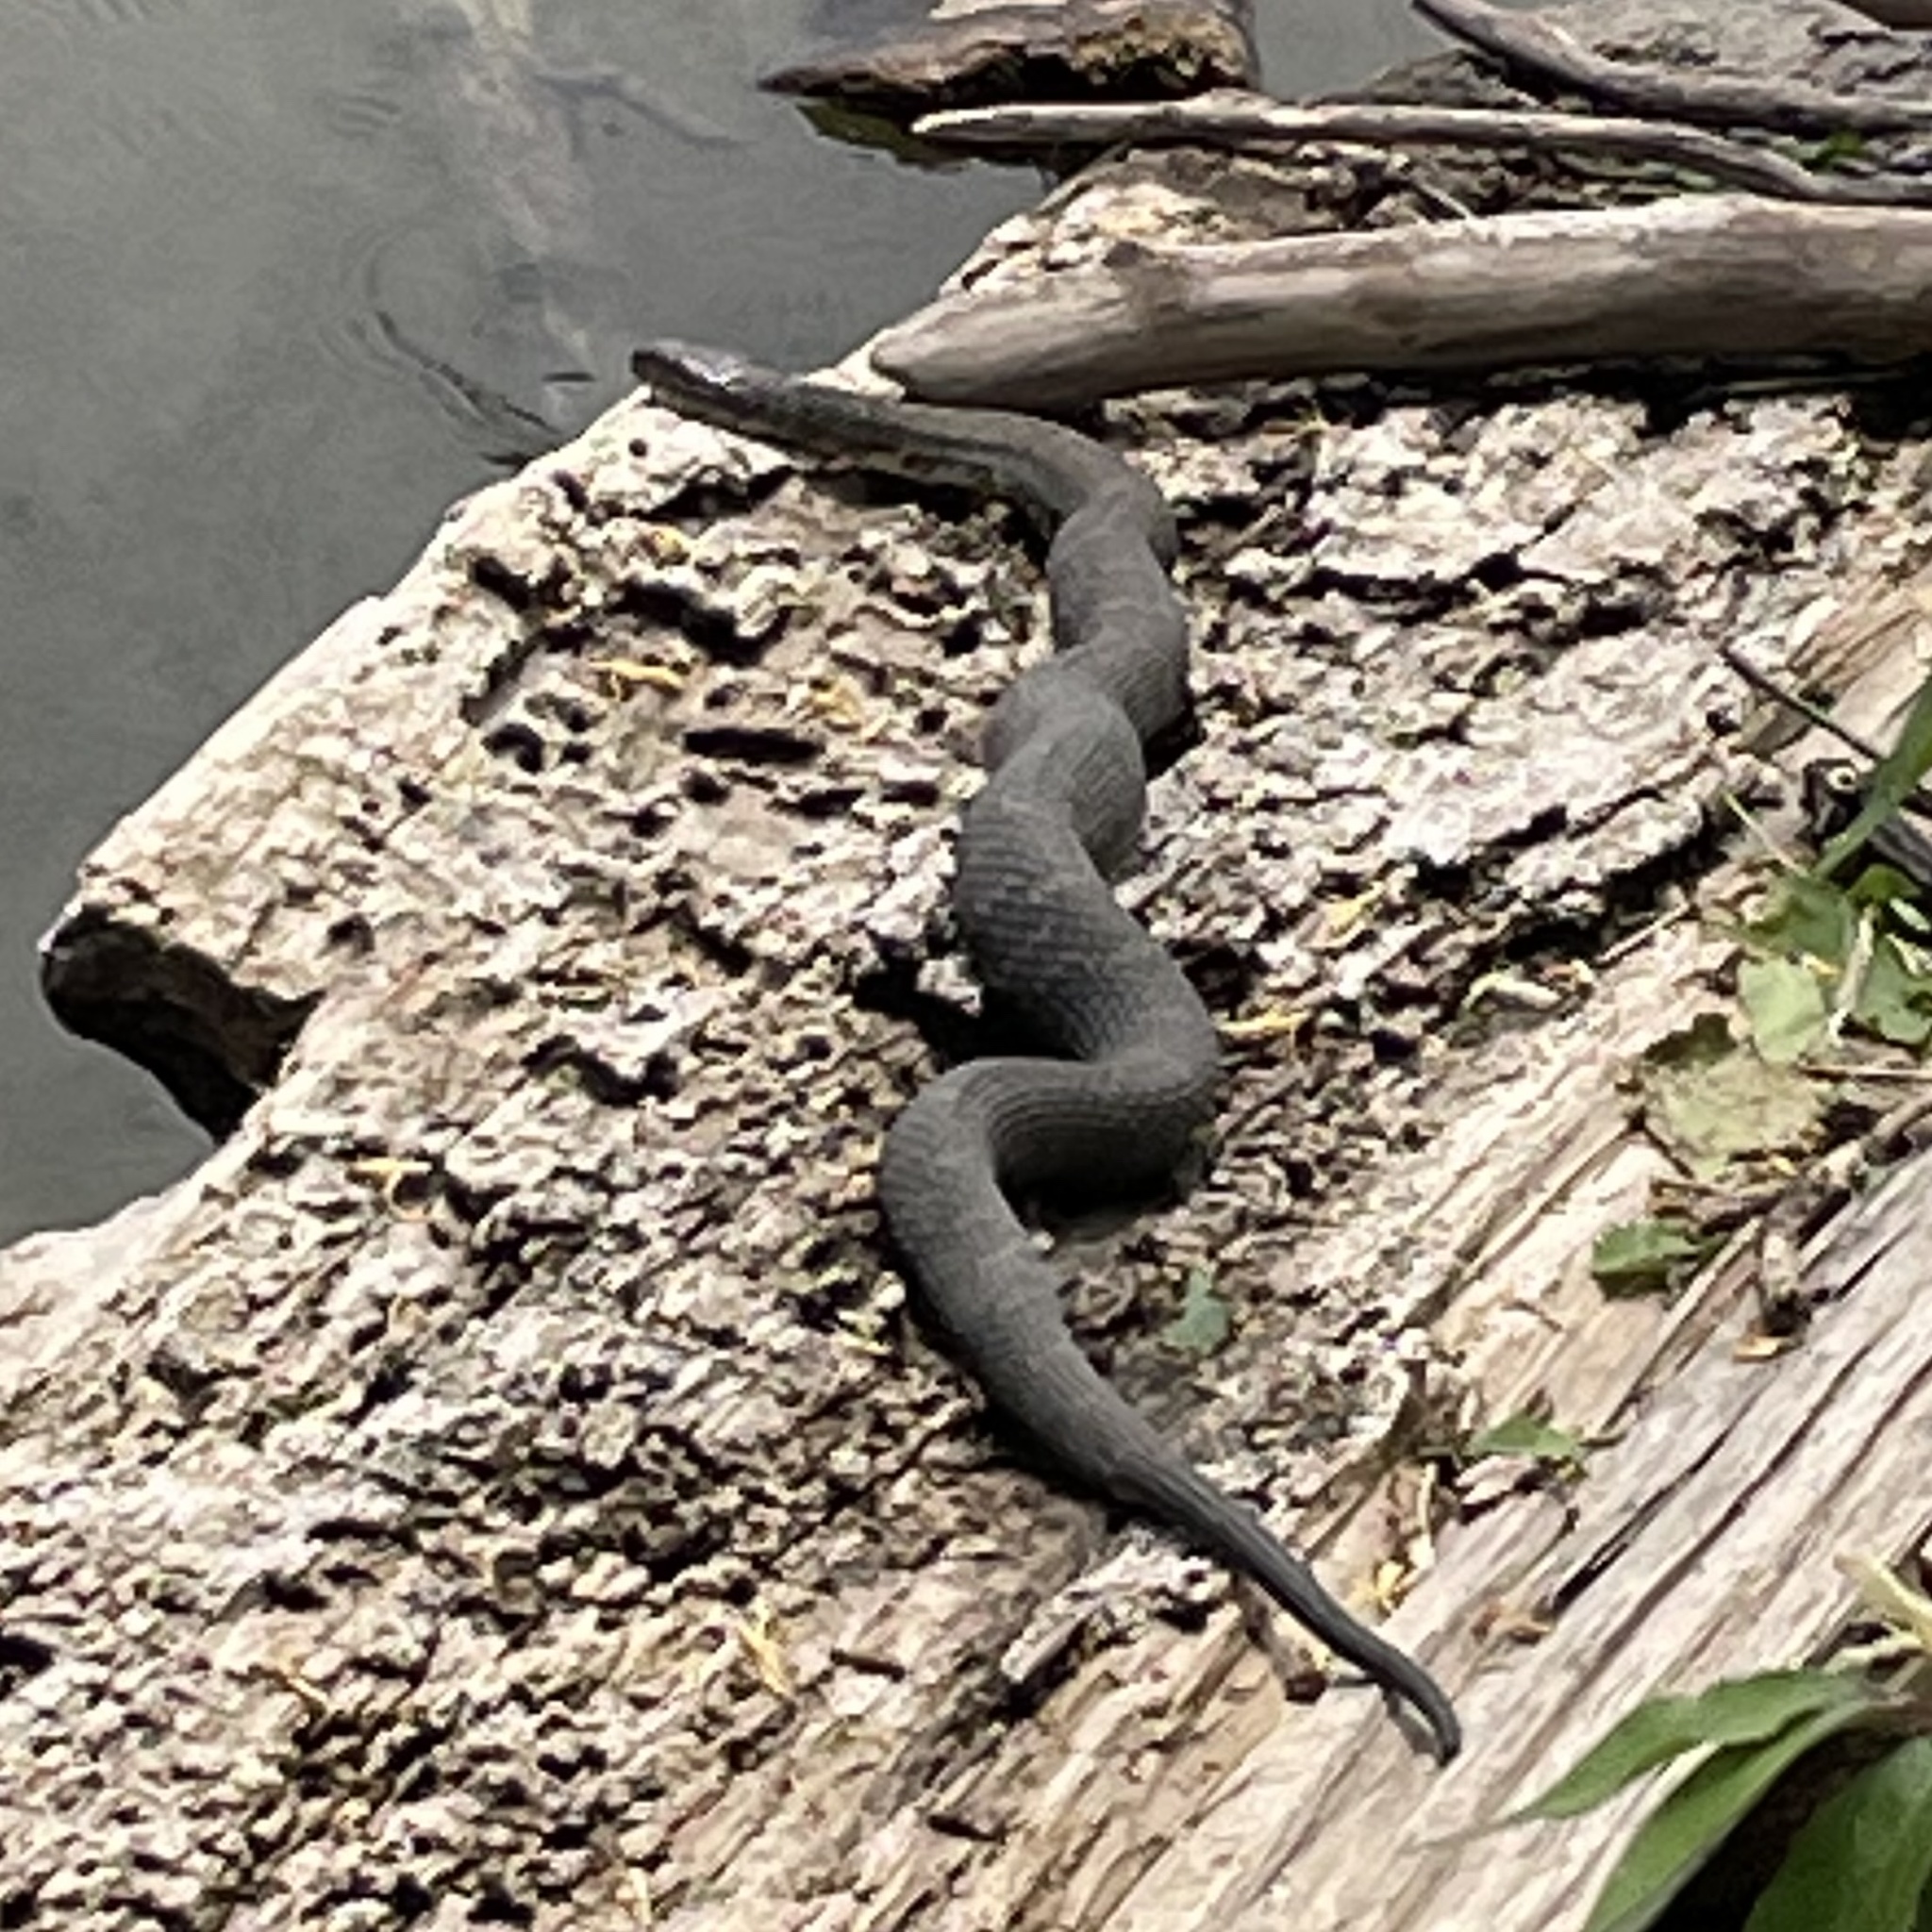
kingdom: Animalia
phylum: Chordata
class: Squamata
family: Colubridae
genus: Nerodia
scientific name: Nerodia sipedon
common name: Northern water snake
